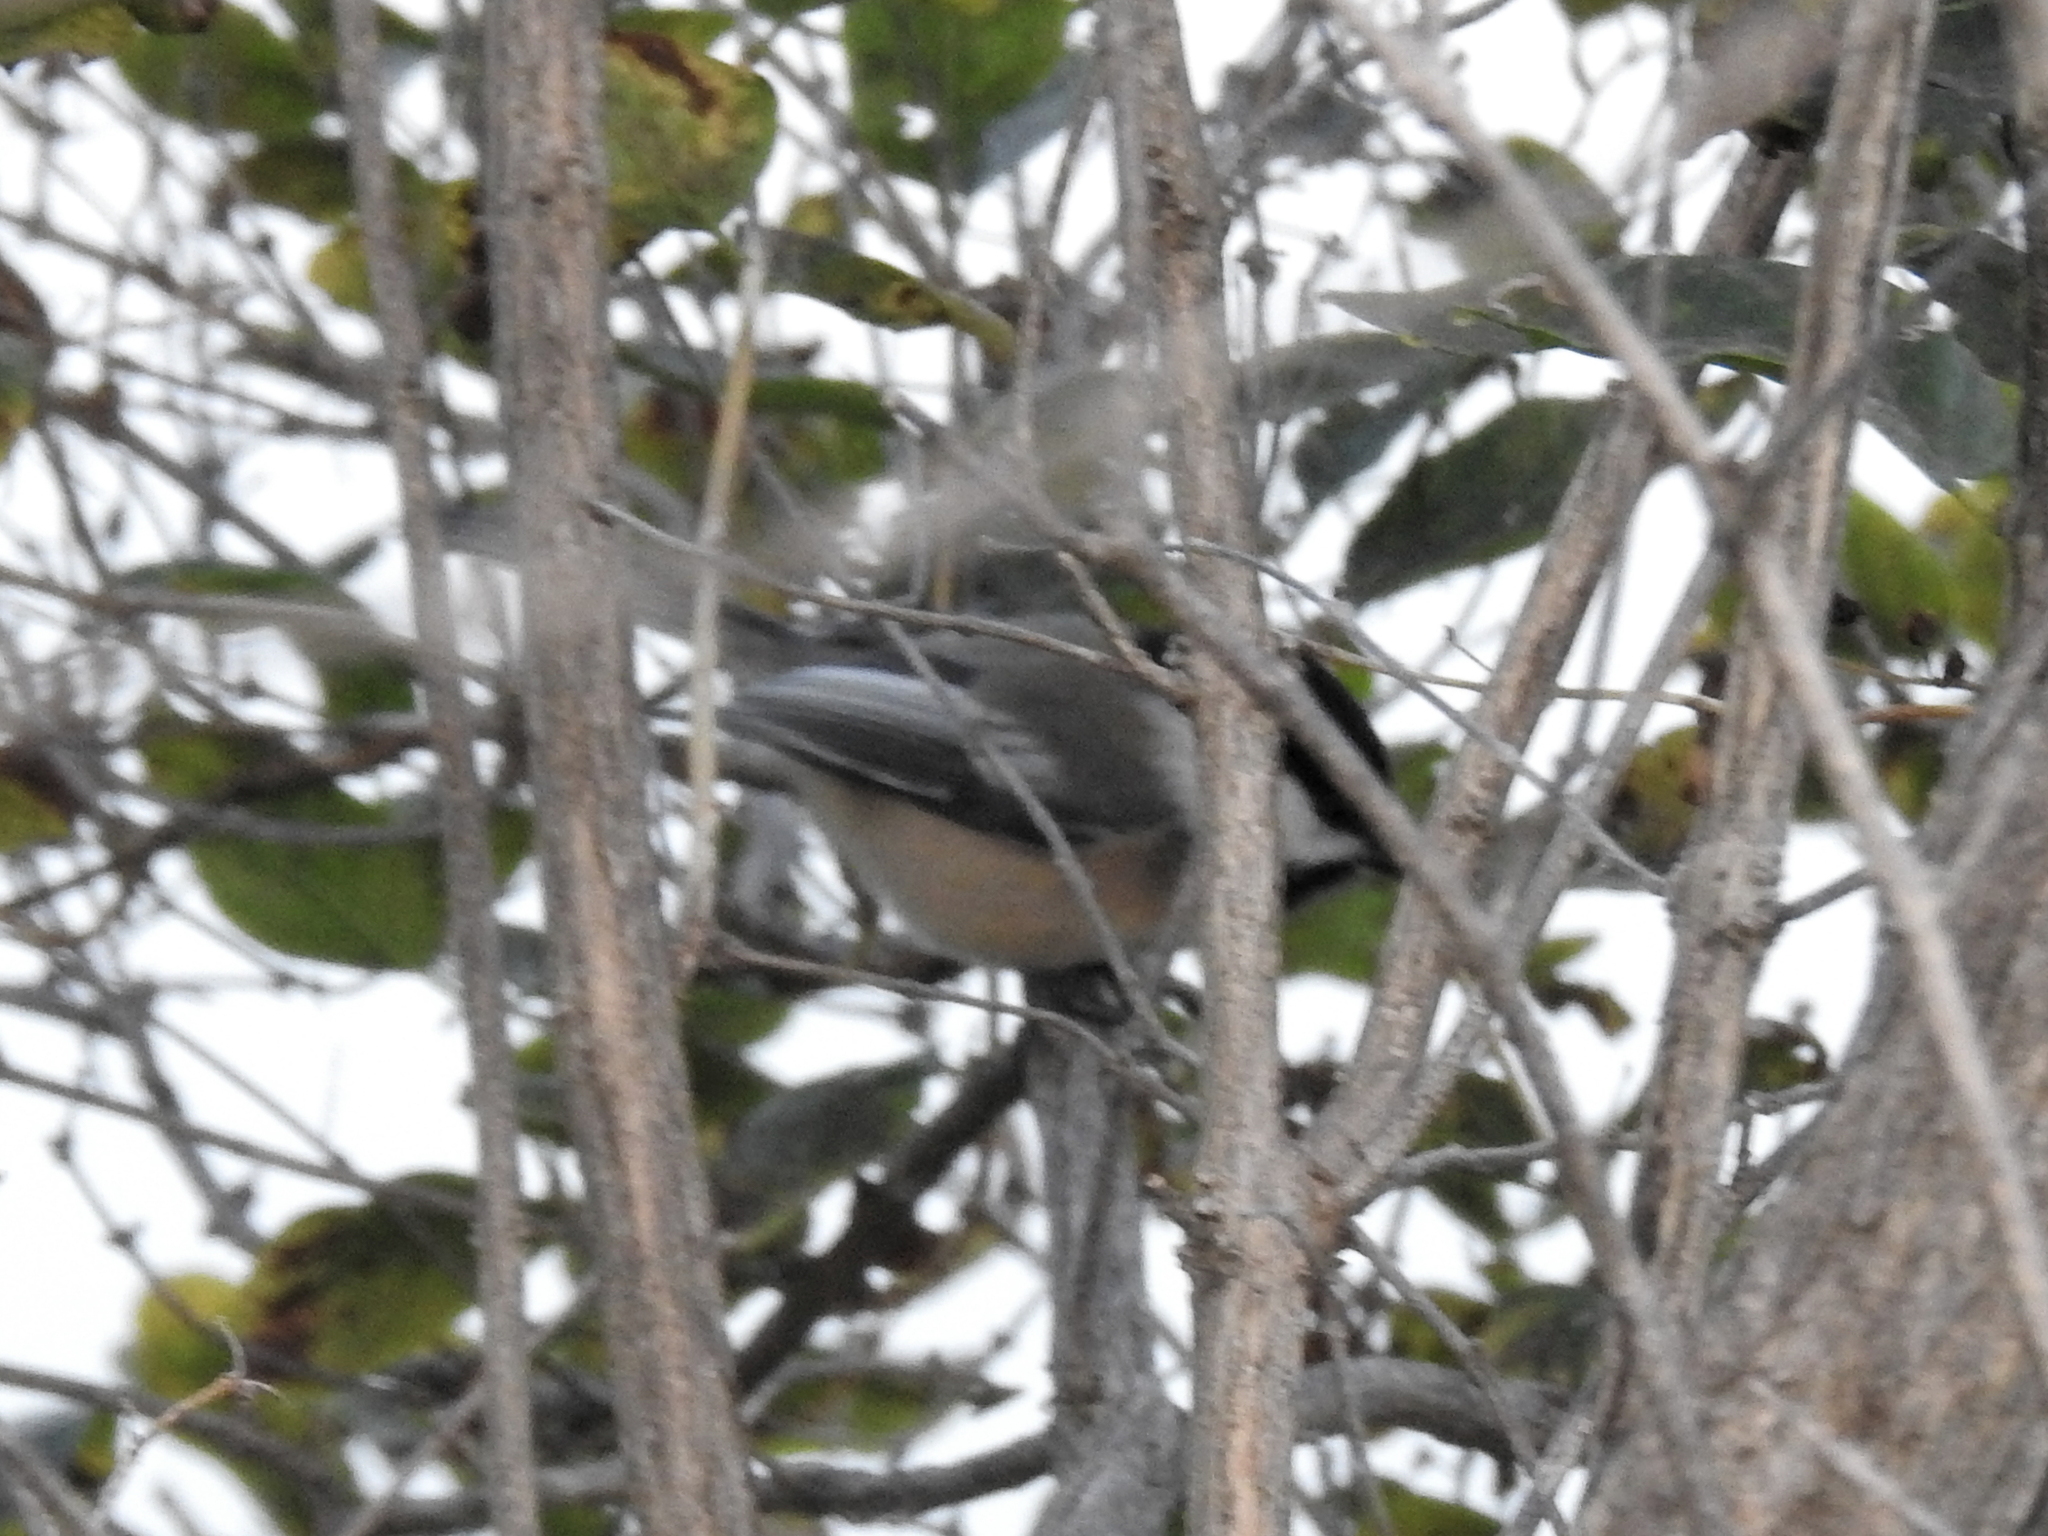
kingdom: Animalia
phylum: Chordata
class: Aves
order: Passeriformes
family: Paridae
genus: Poecile
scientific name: Poecile atricapillus
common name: Black-capped chickadee
